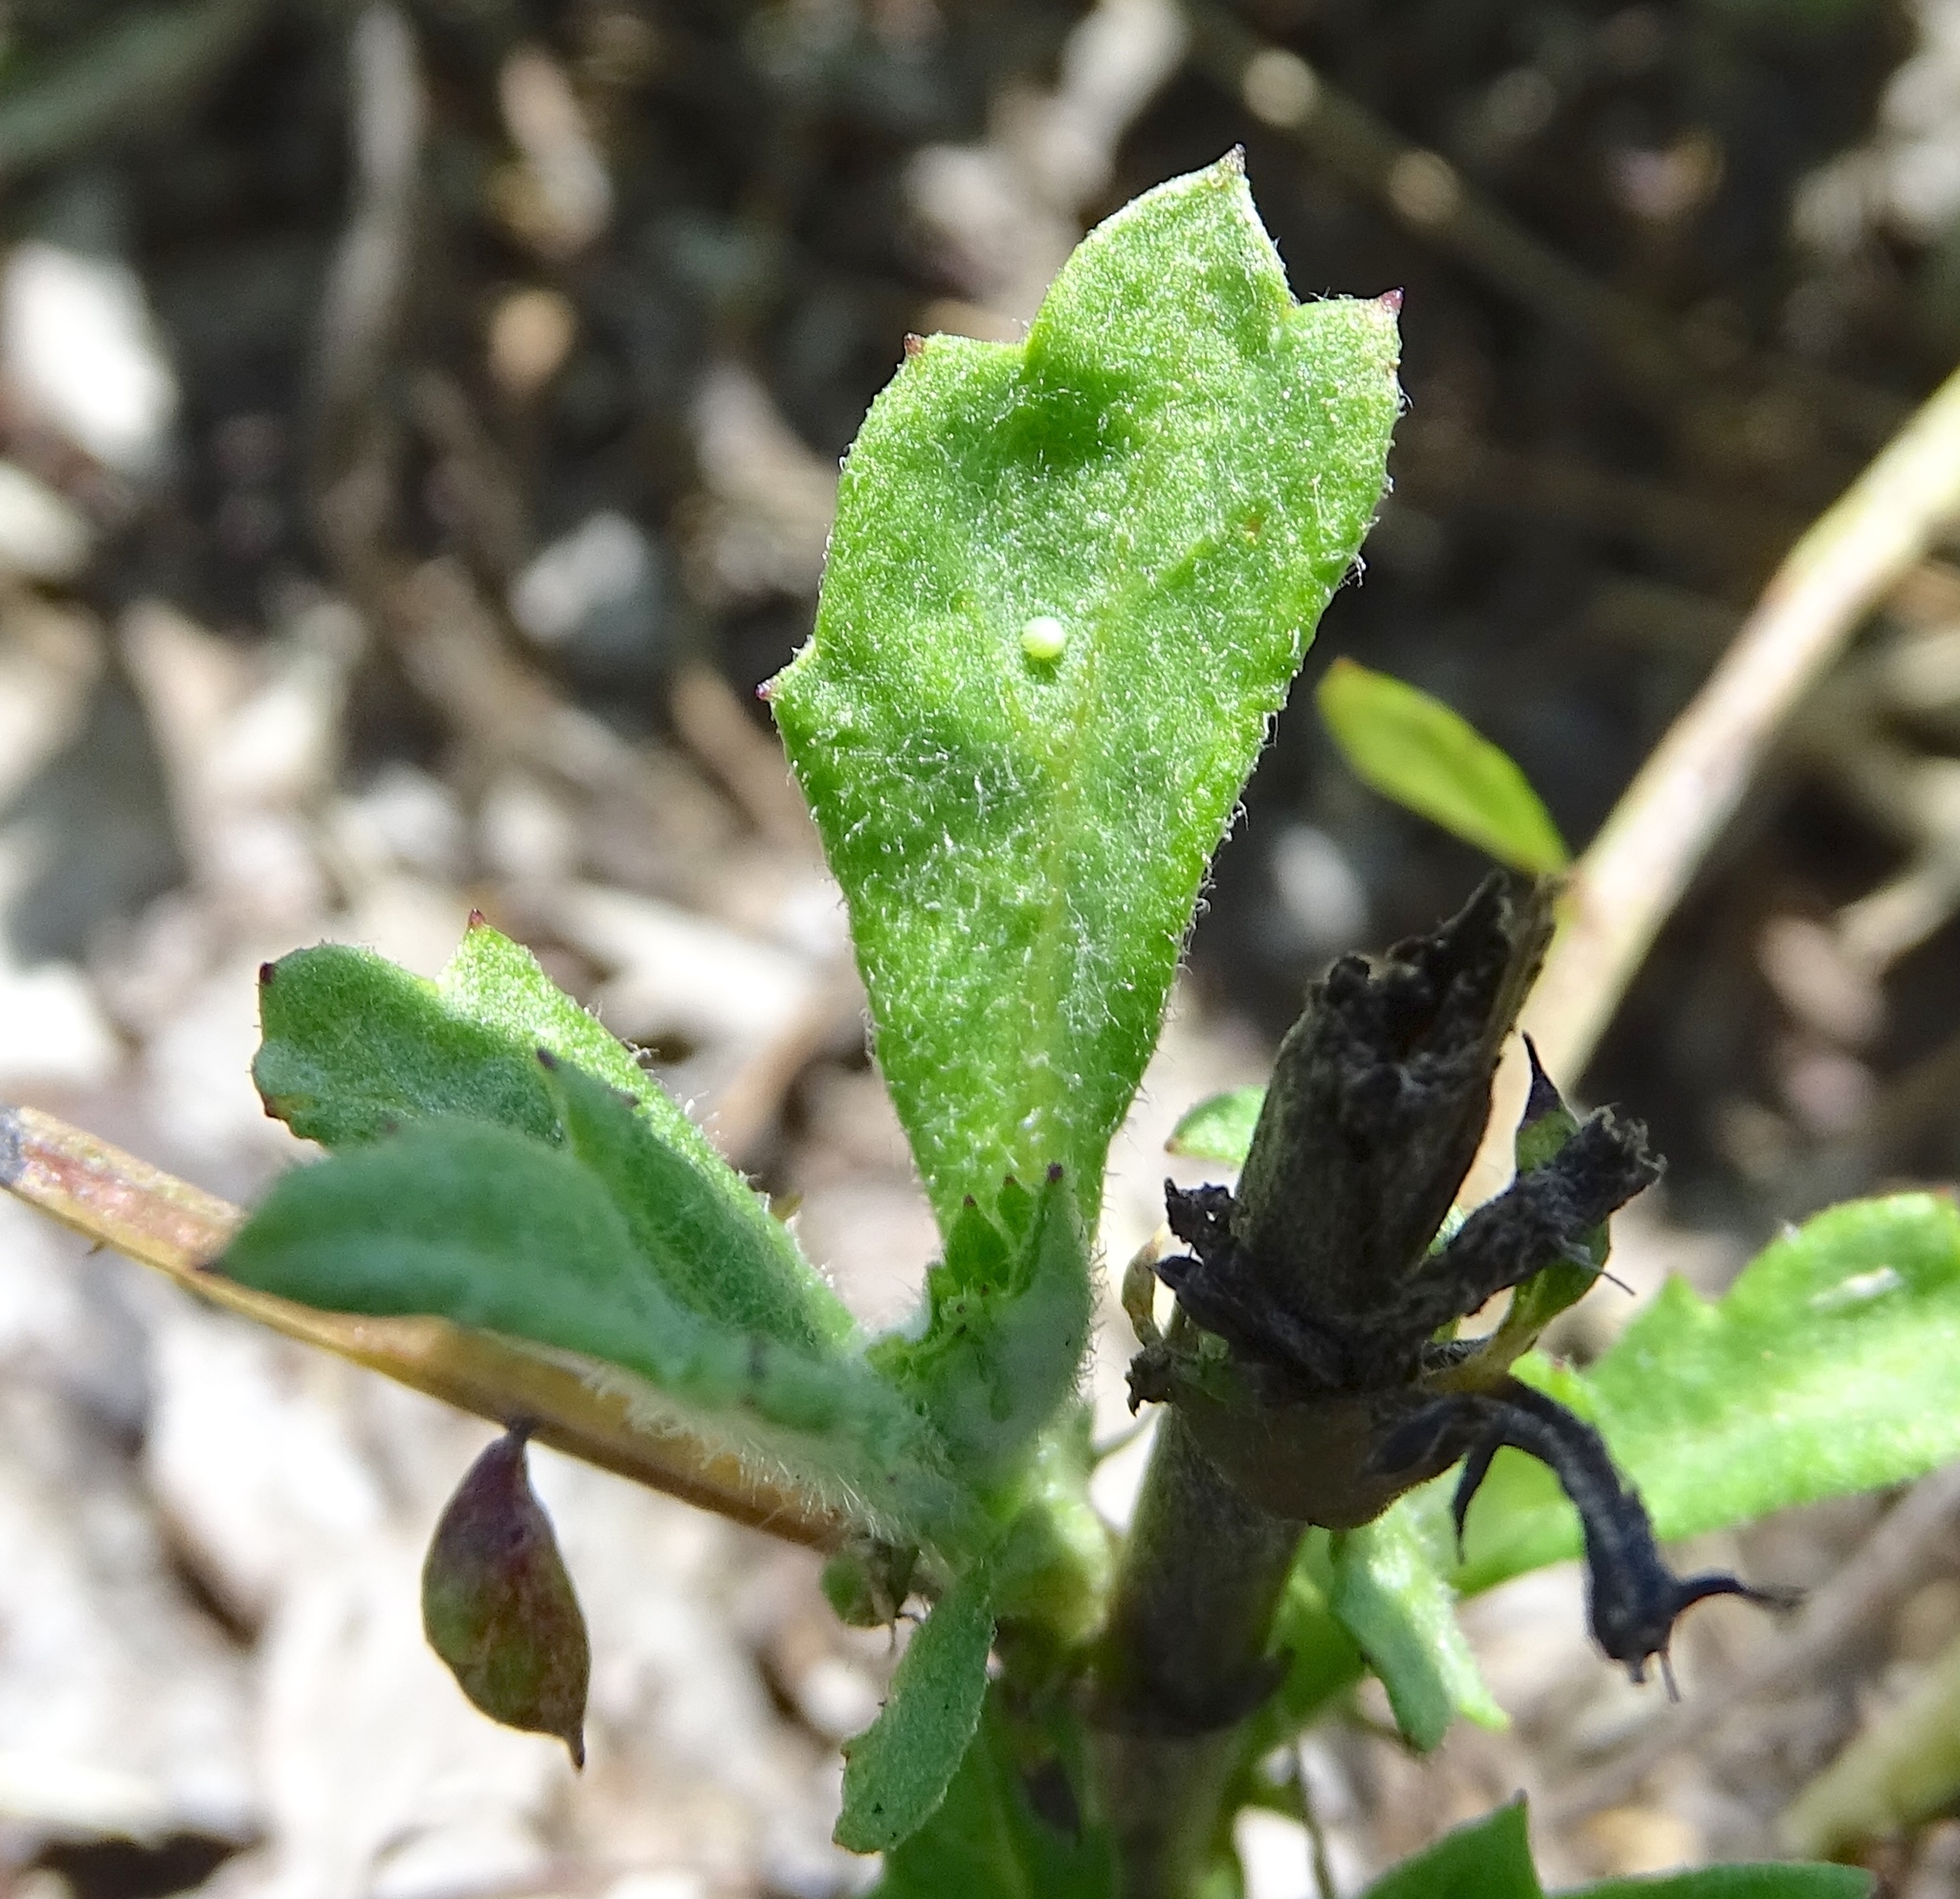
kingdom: Animalia
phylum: Arthropoda
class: Insecta
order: Lepidoptera
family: Nymphalidae
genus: Vanessa
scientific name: Vanessa cardui
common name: Painted lady
